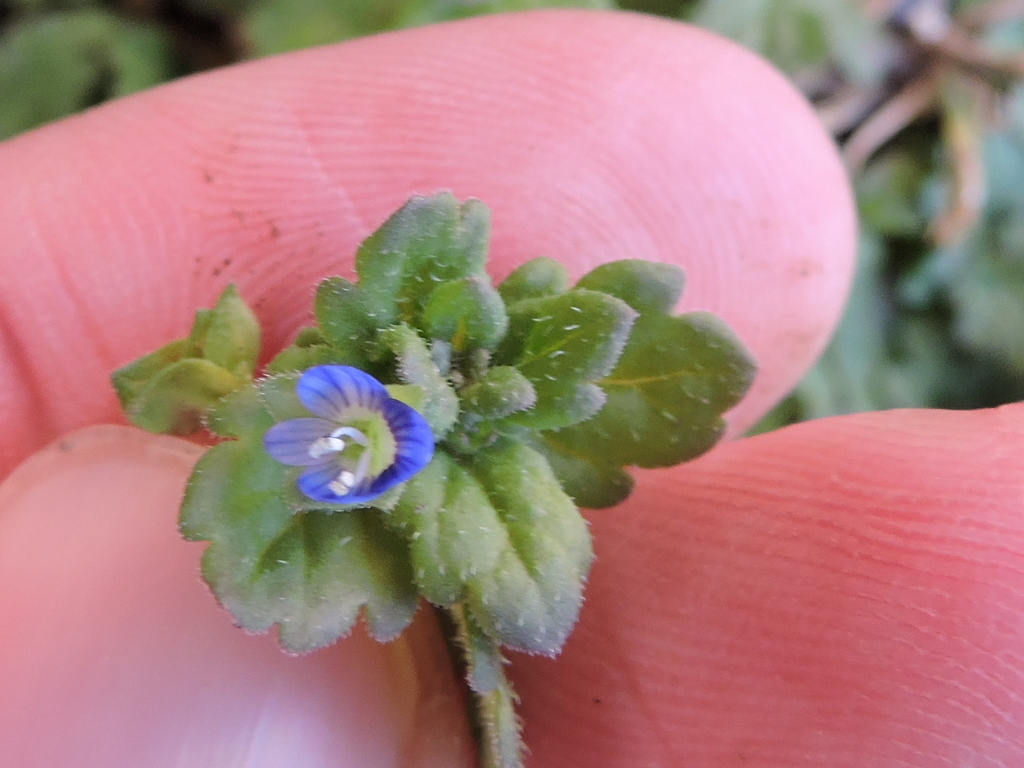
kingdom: Plantae
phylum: Tracheophyta
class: Magnoliopsida
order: Lamiales
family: Plantaginaceae
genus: Veronica
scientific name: Veronica polita
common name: Grey field-speedwell
